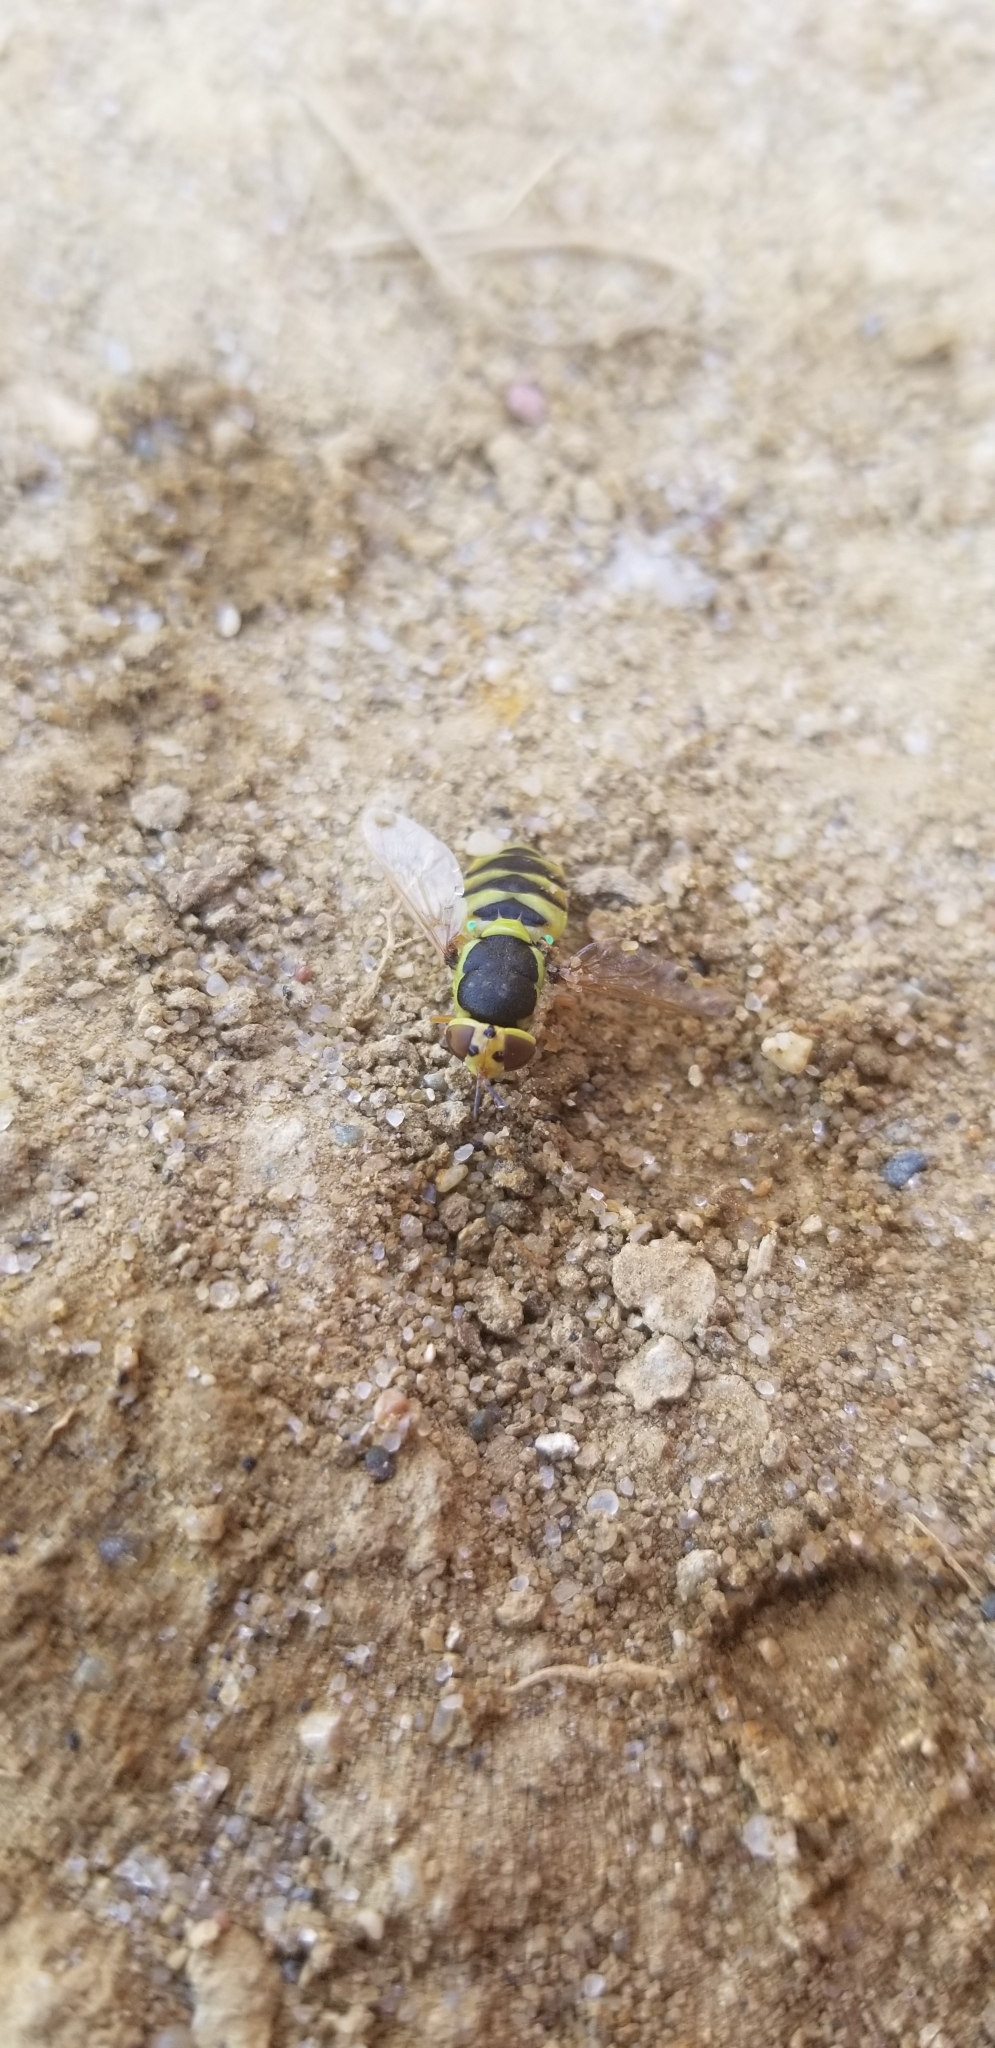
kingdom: Animalia
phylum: Arthropoda
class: Insecta
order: Diptera
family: Stratiomyidae
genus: Odontomyia
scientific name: Odontomyia cincta
